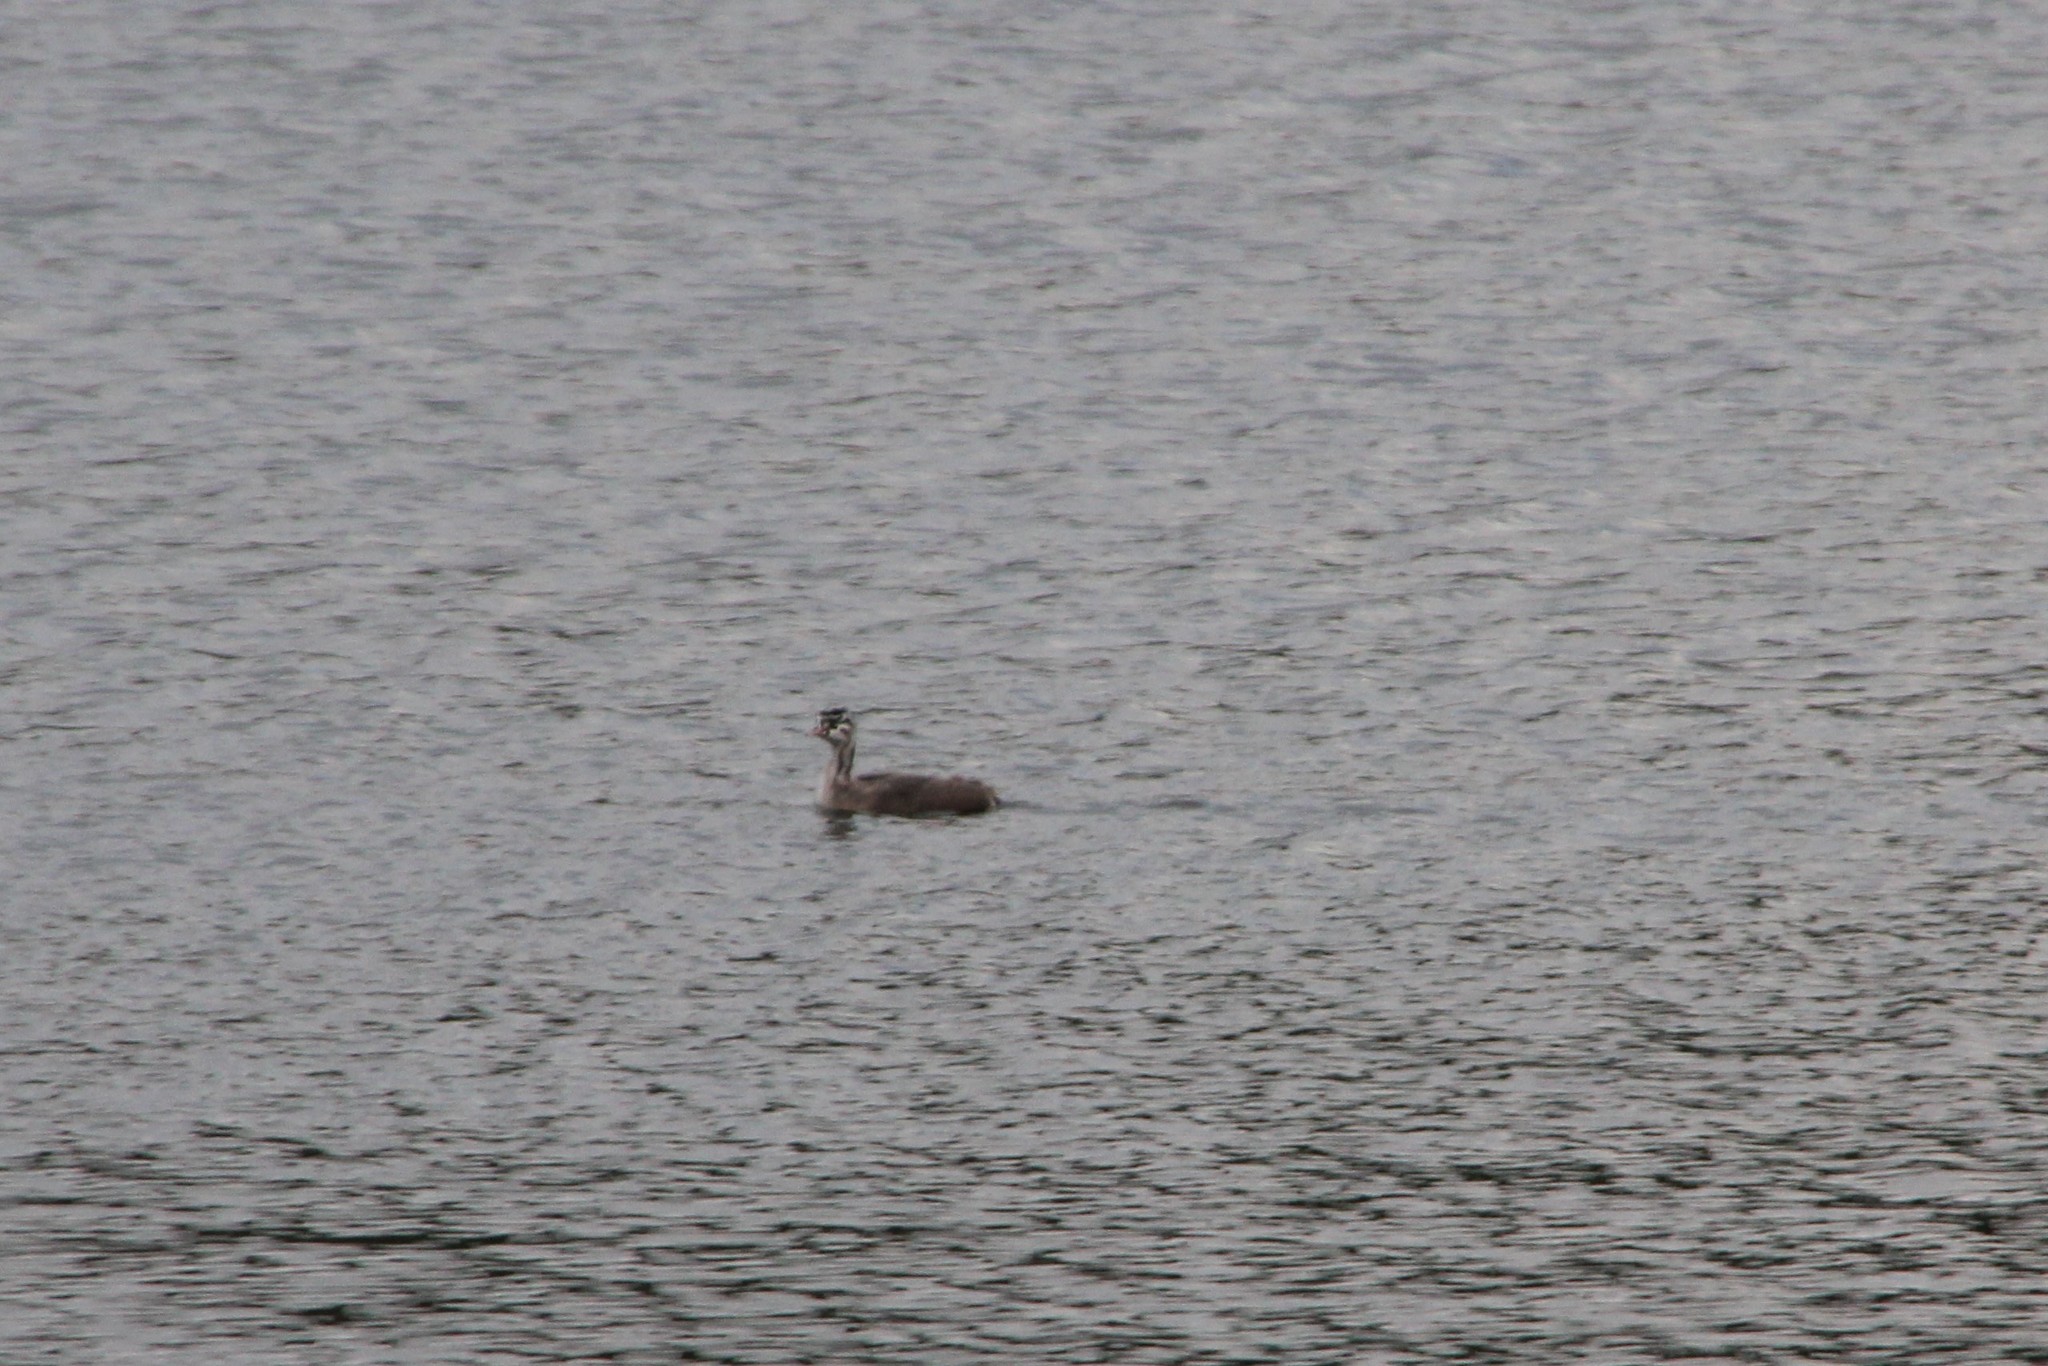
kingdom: Animalia
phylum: Chordata
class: Aves
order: Podicipediformes
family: Podicipedidae
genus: Podiceps
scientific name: Podiceps cristatus
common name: Great crested grebe
